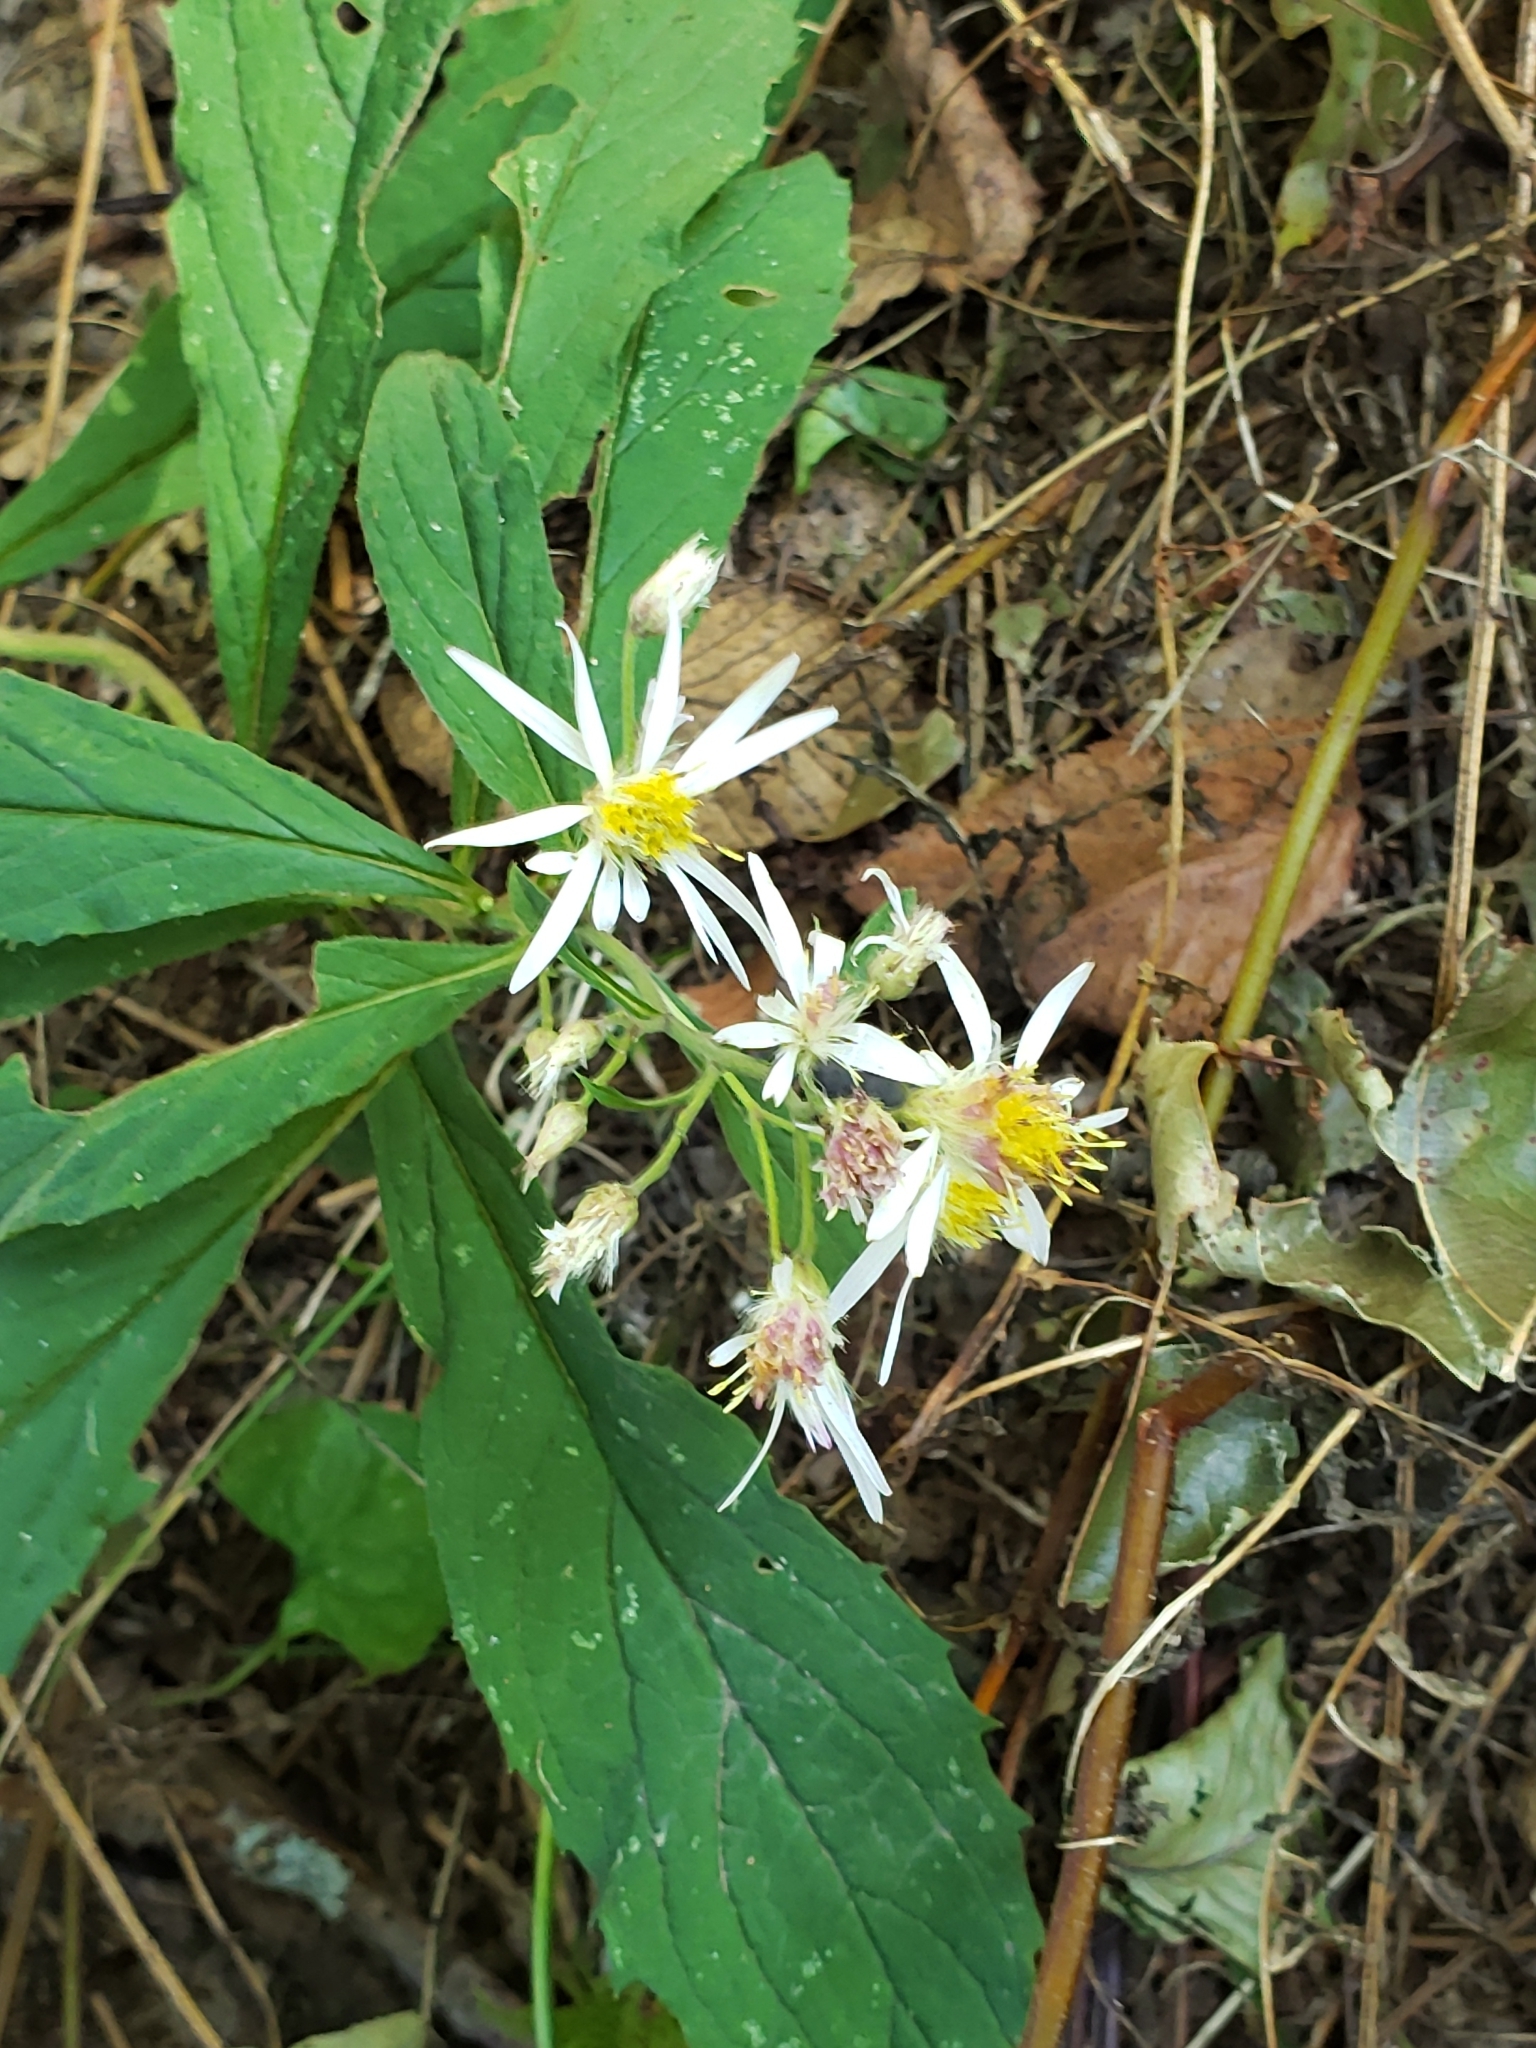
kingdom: Plantae
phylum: Tracheophyta
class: Magnoliopsida
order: Asterales
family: Asteraceae
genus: Oclemena
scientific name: Oclemena acuminata
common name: Mountain aster
